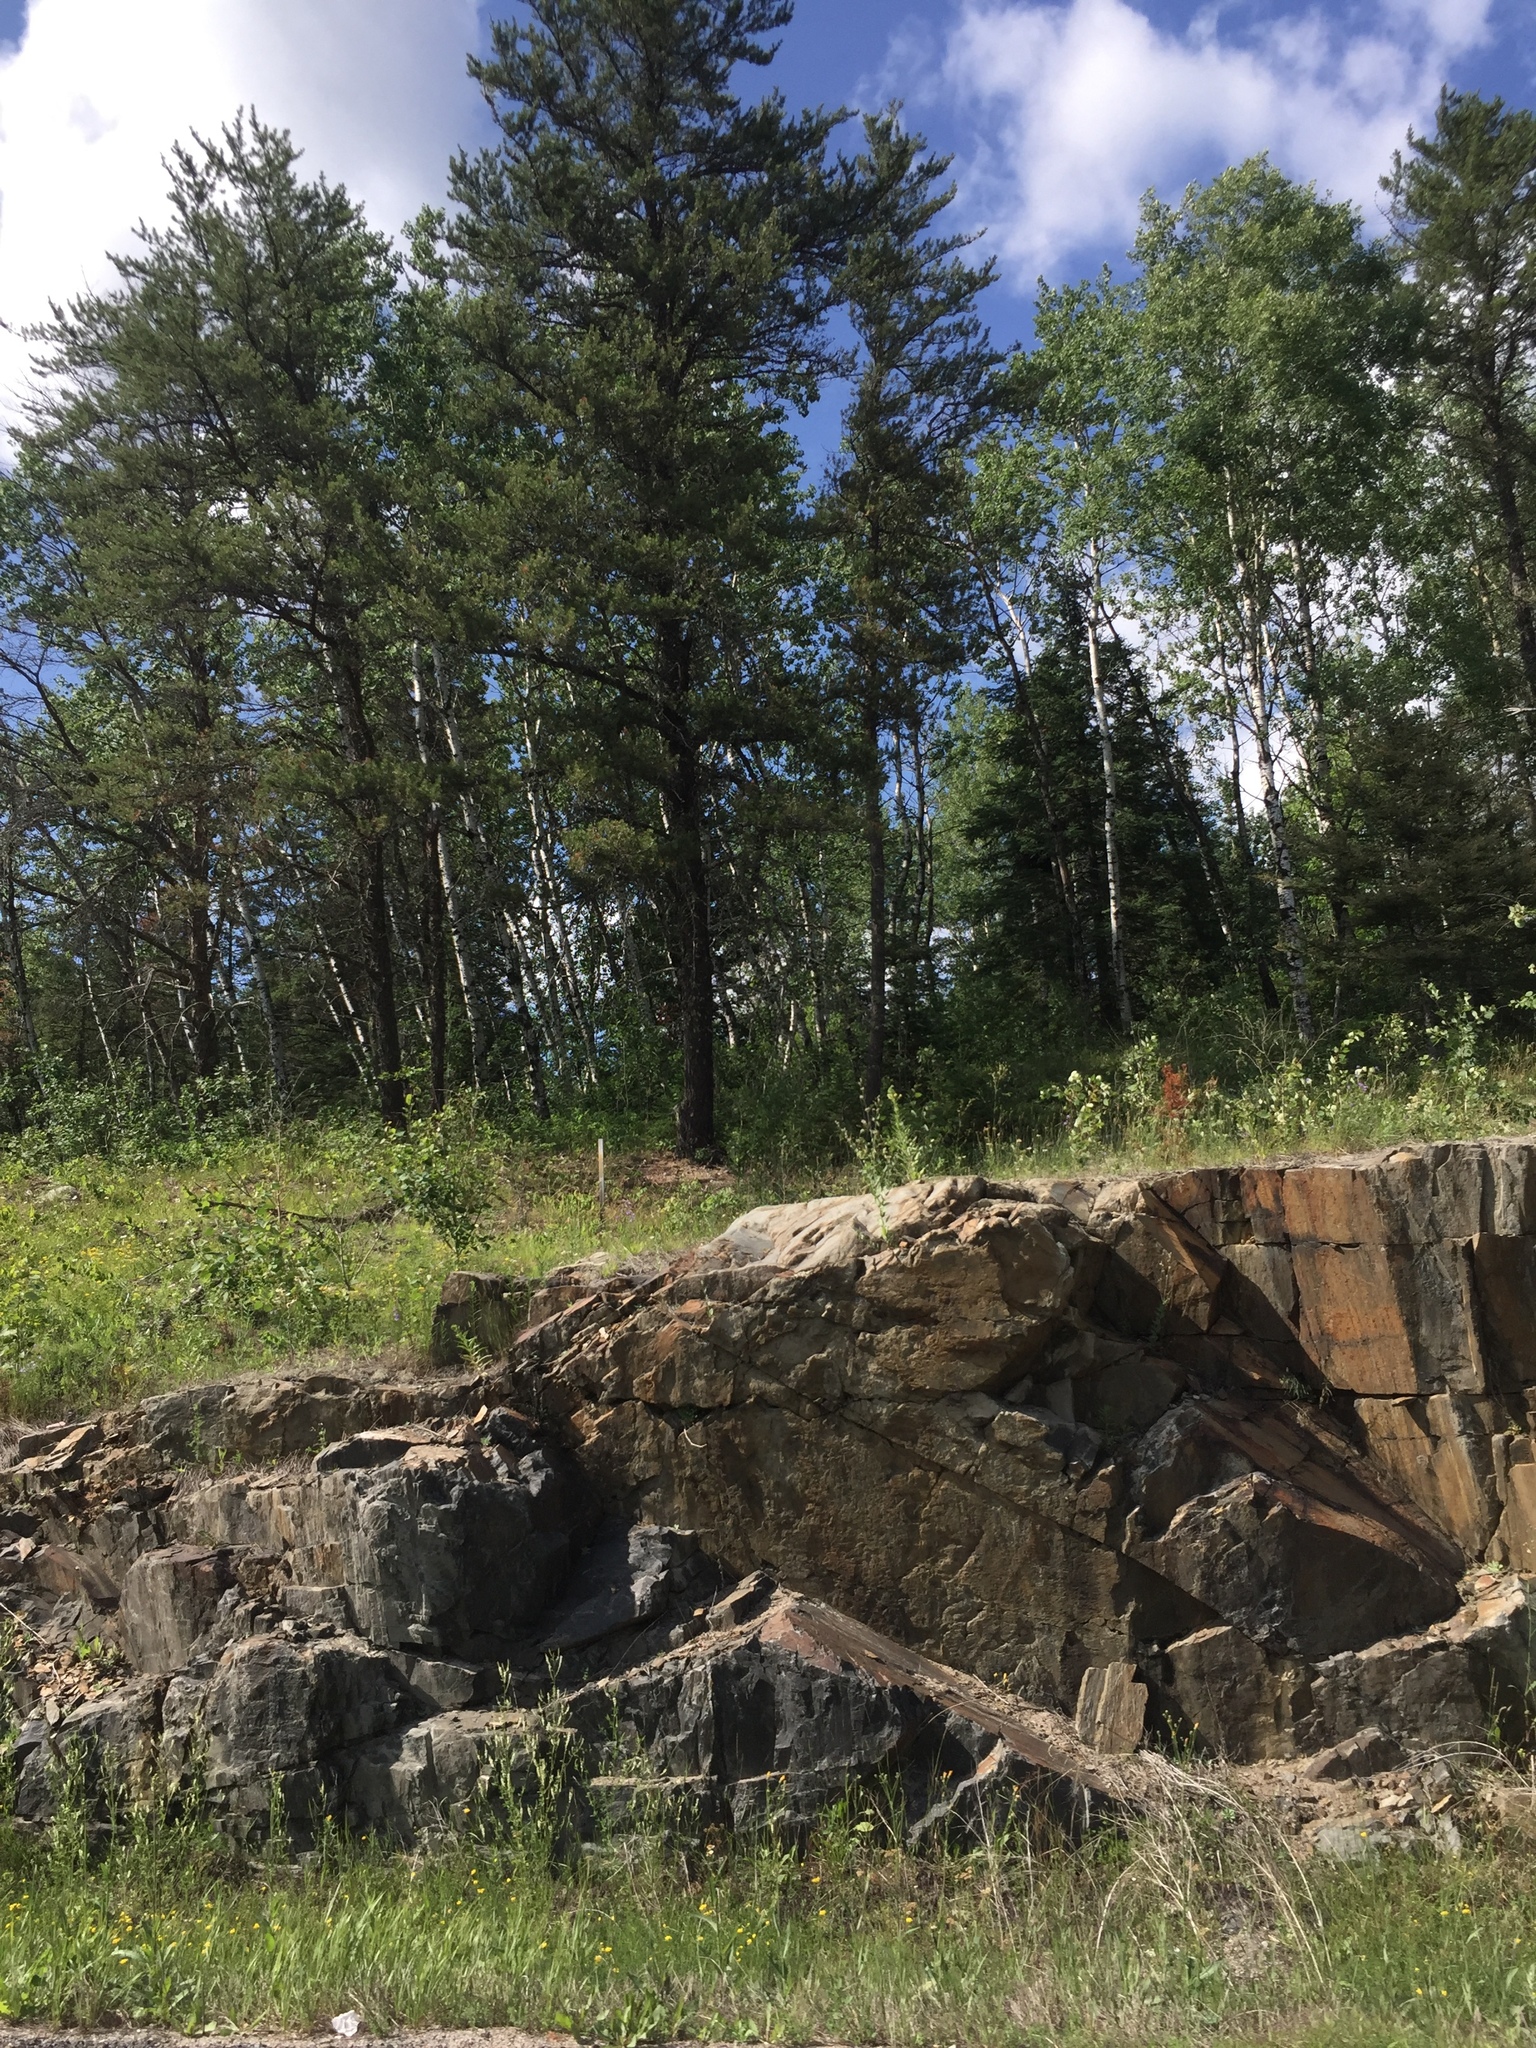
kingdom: Plantae
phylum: Tracheophyta
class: Pinopsida
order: Pinales
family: Pinaceae
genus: Pinus
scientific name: Pinus banksiana
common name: Jack pine
